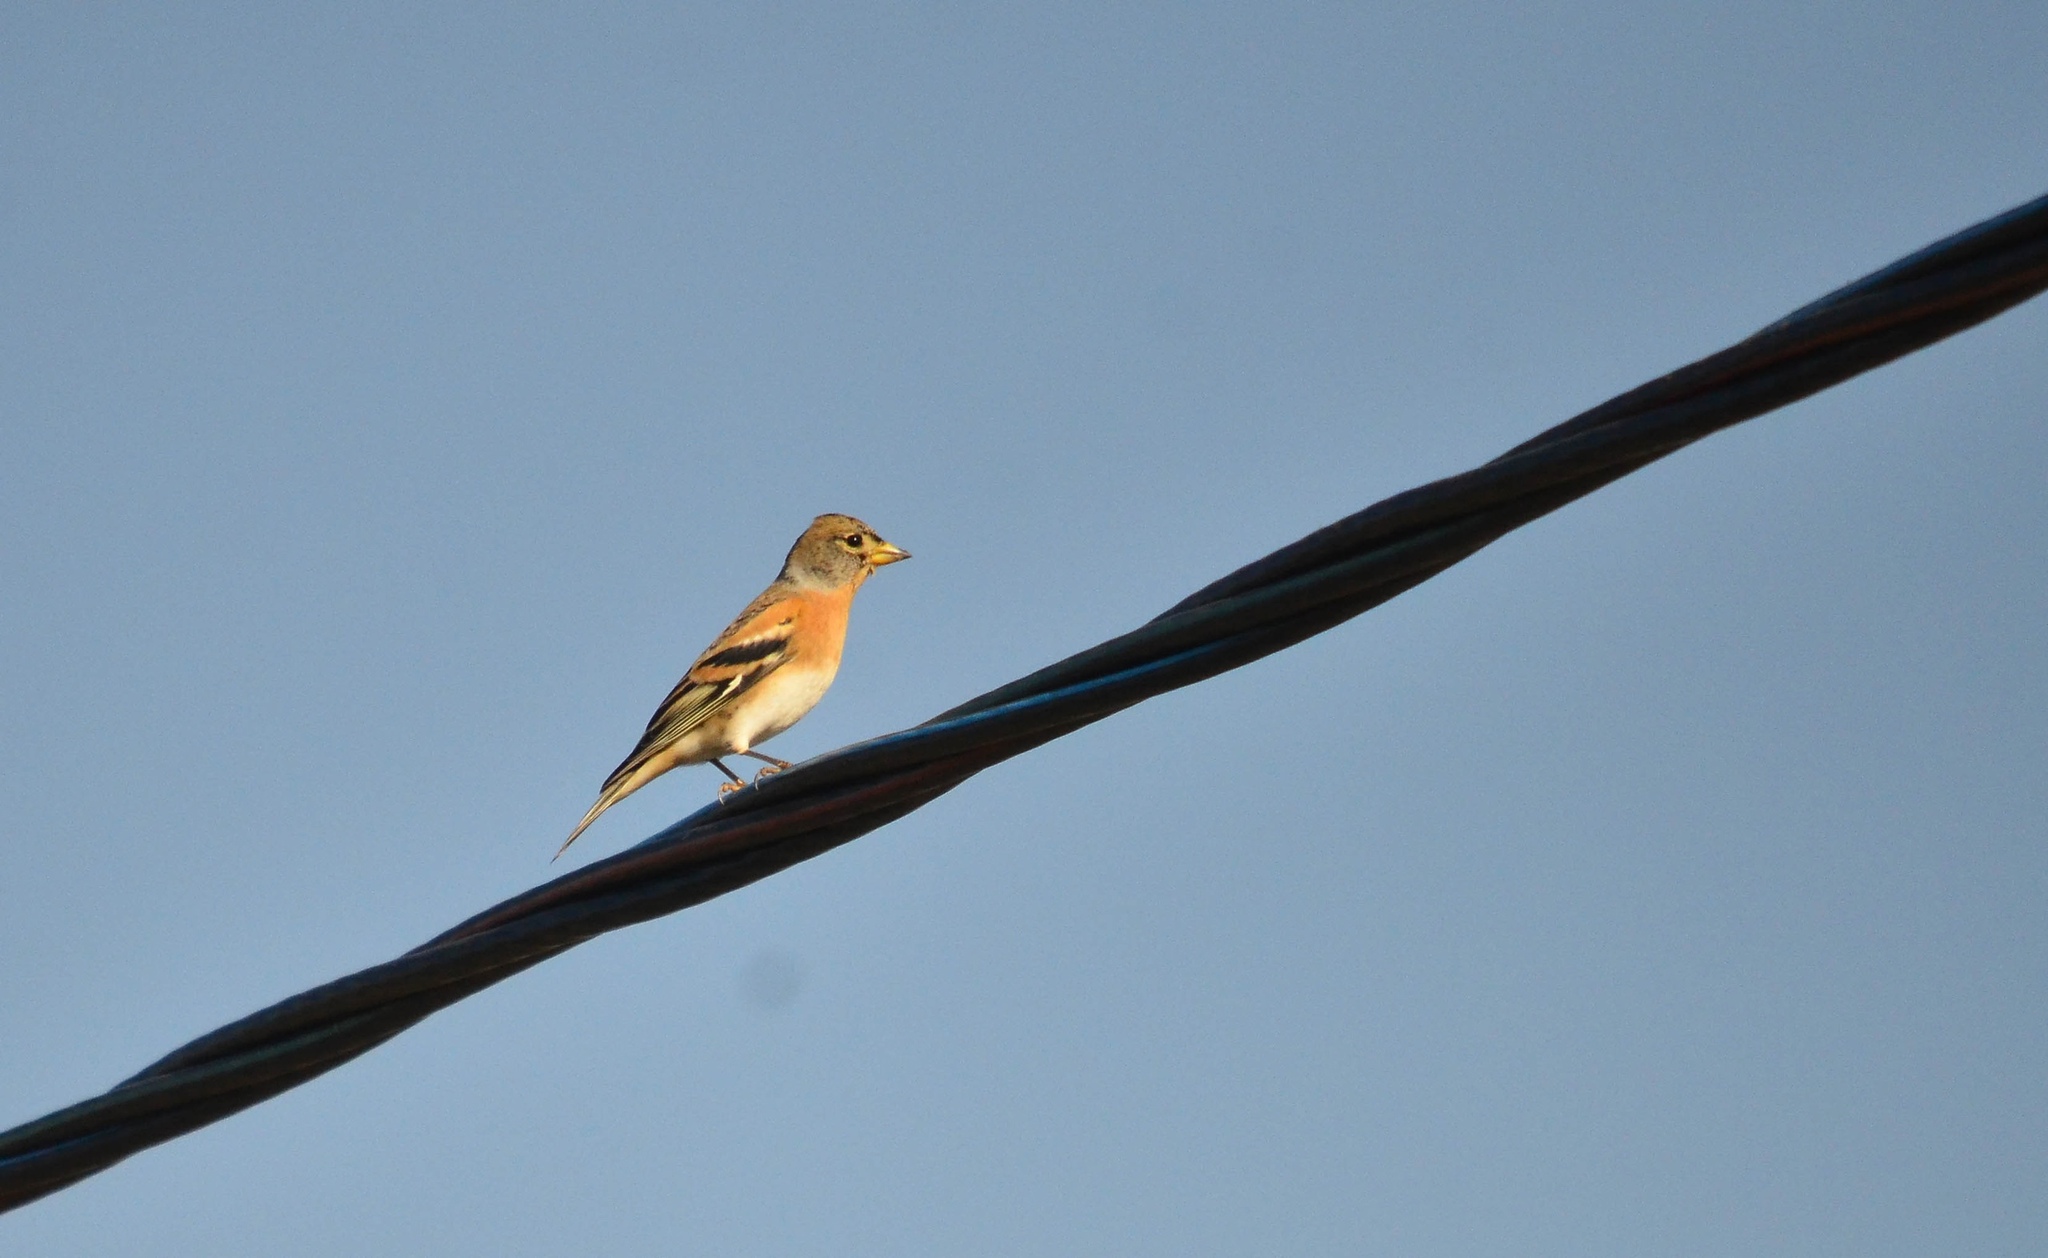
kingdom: Animalia
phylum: Chordata
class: Aves
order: Passeriformes
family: Fringillidae
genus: Fringilla
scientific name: Fringilla montifringilla
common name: Brambling
